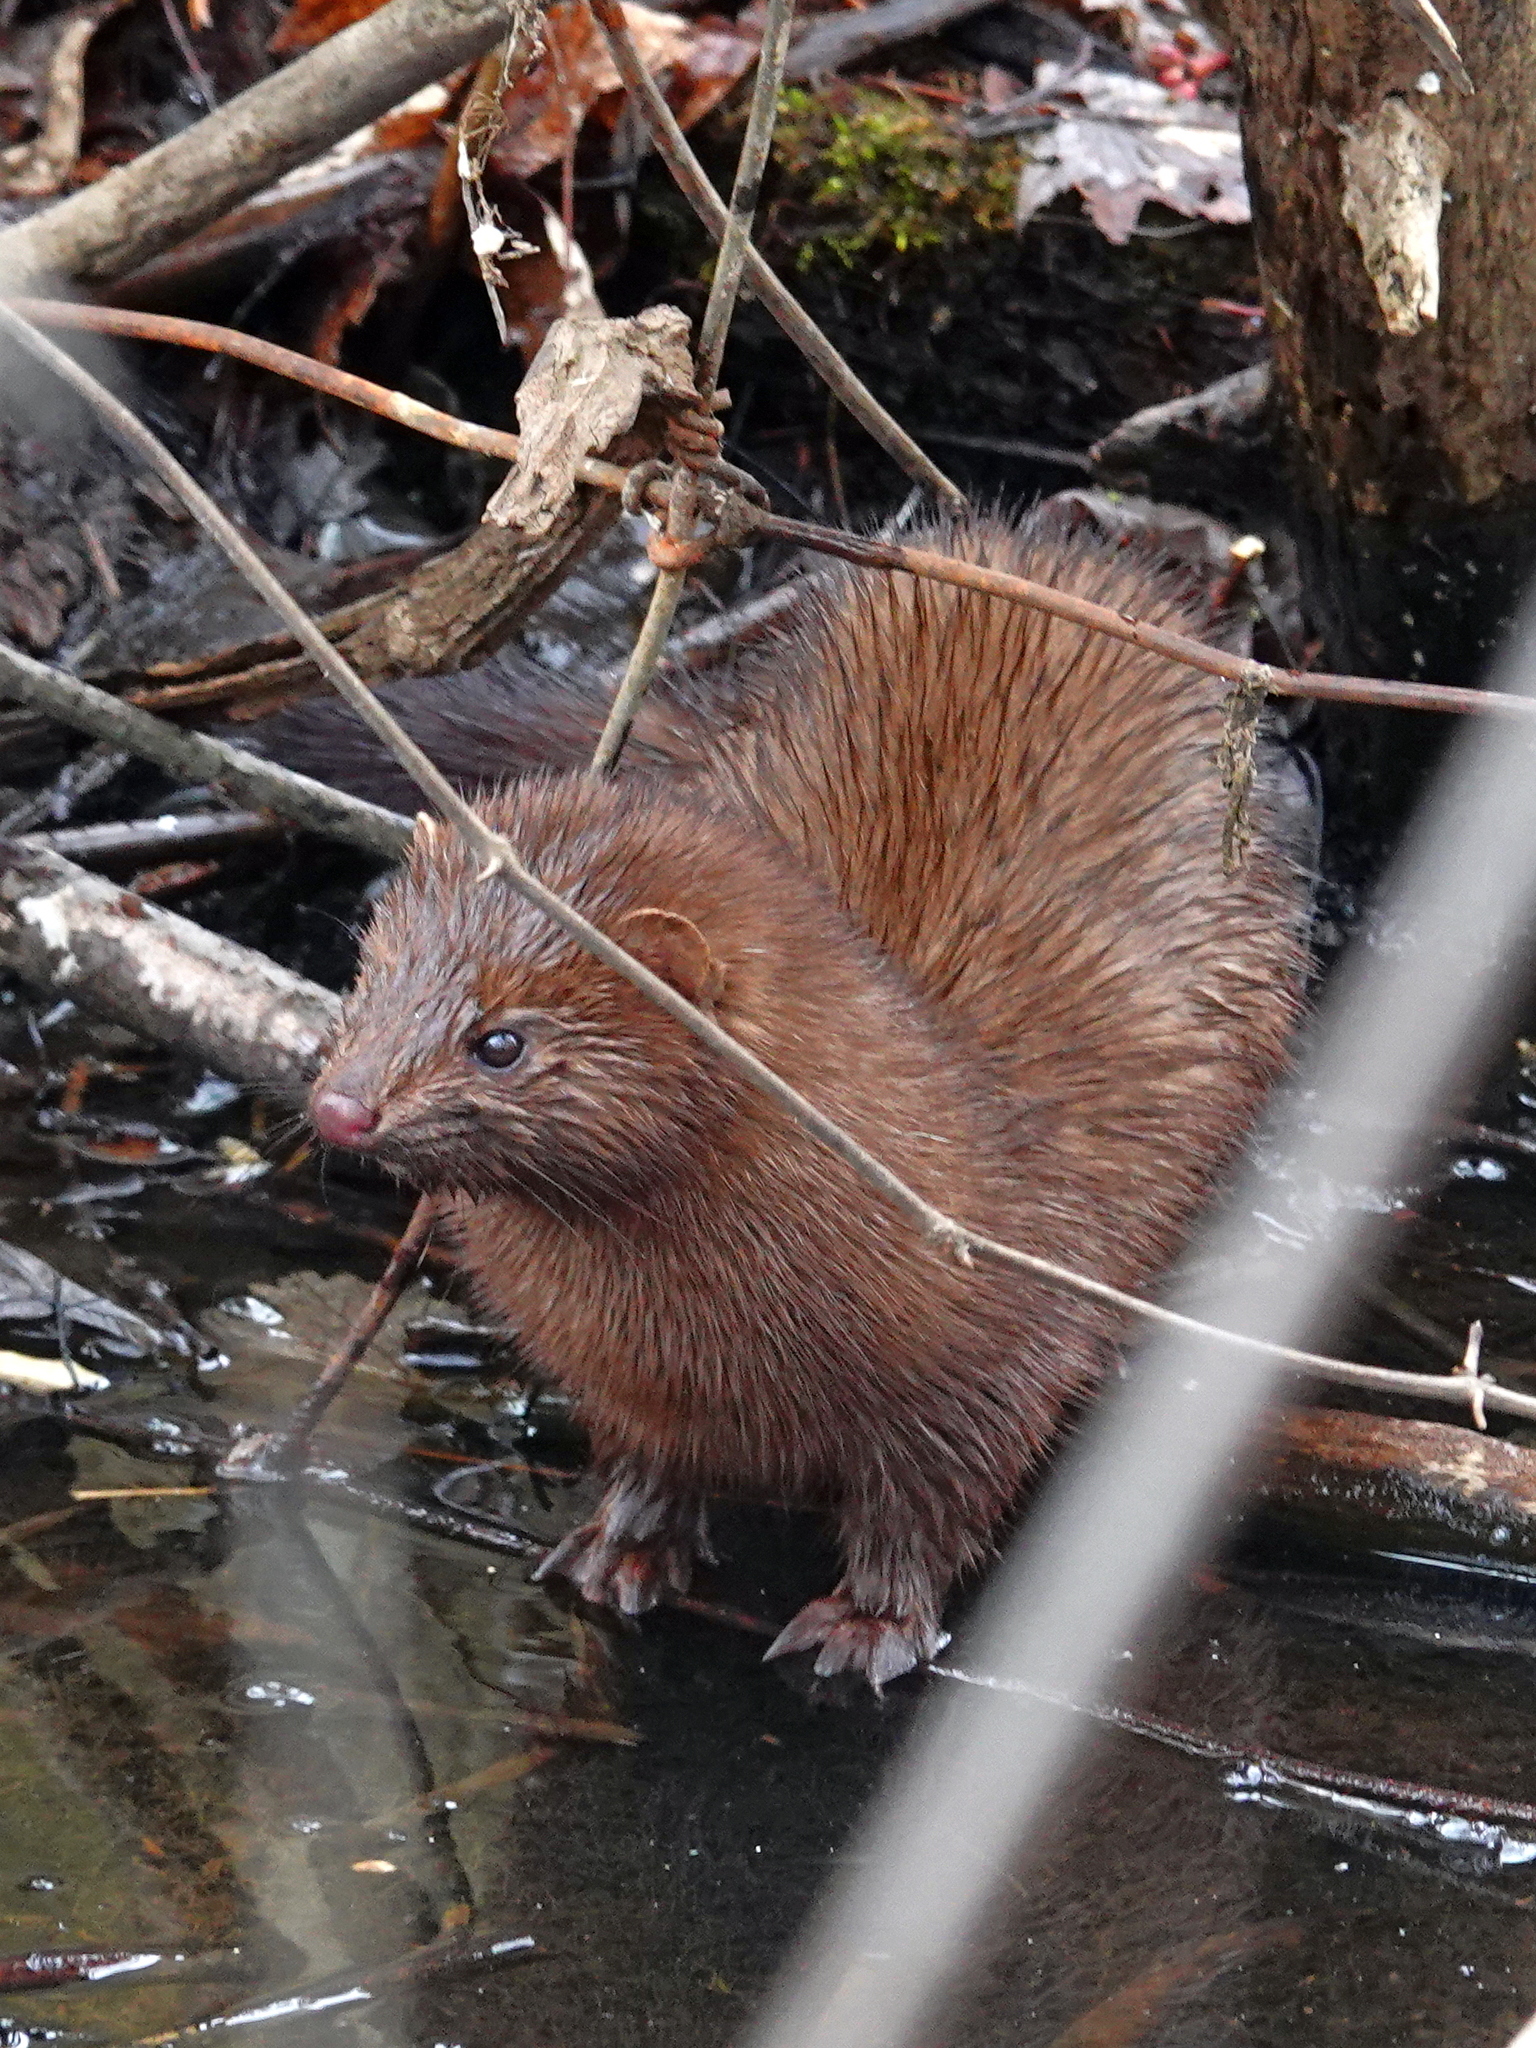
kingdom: Animalia
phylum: Chordata
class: Mammalia
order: Carnivora
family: Mustelidae
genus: Mustela
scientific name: Mustela
